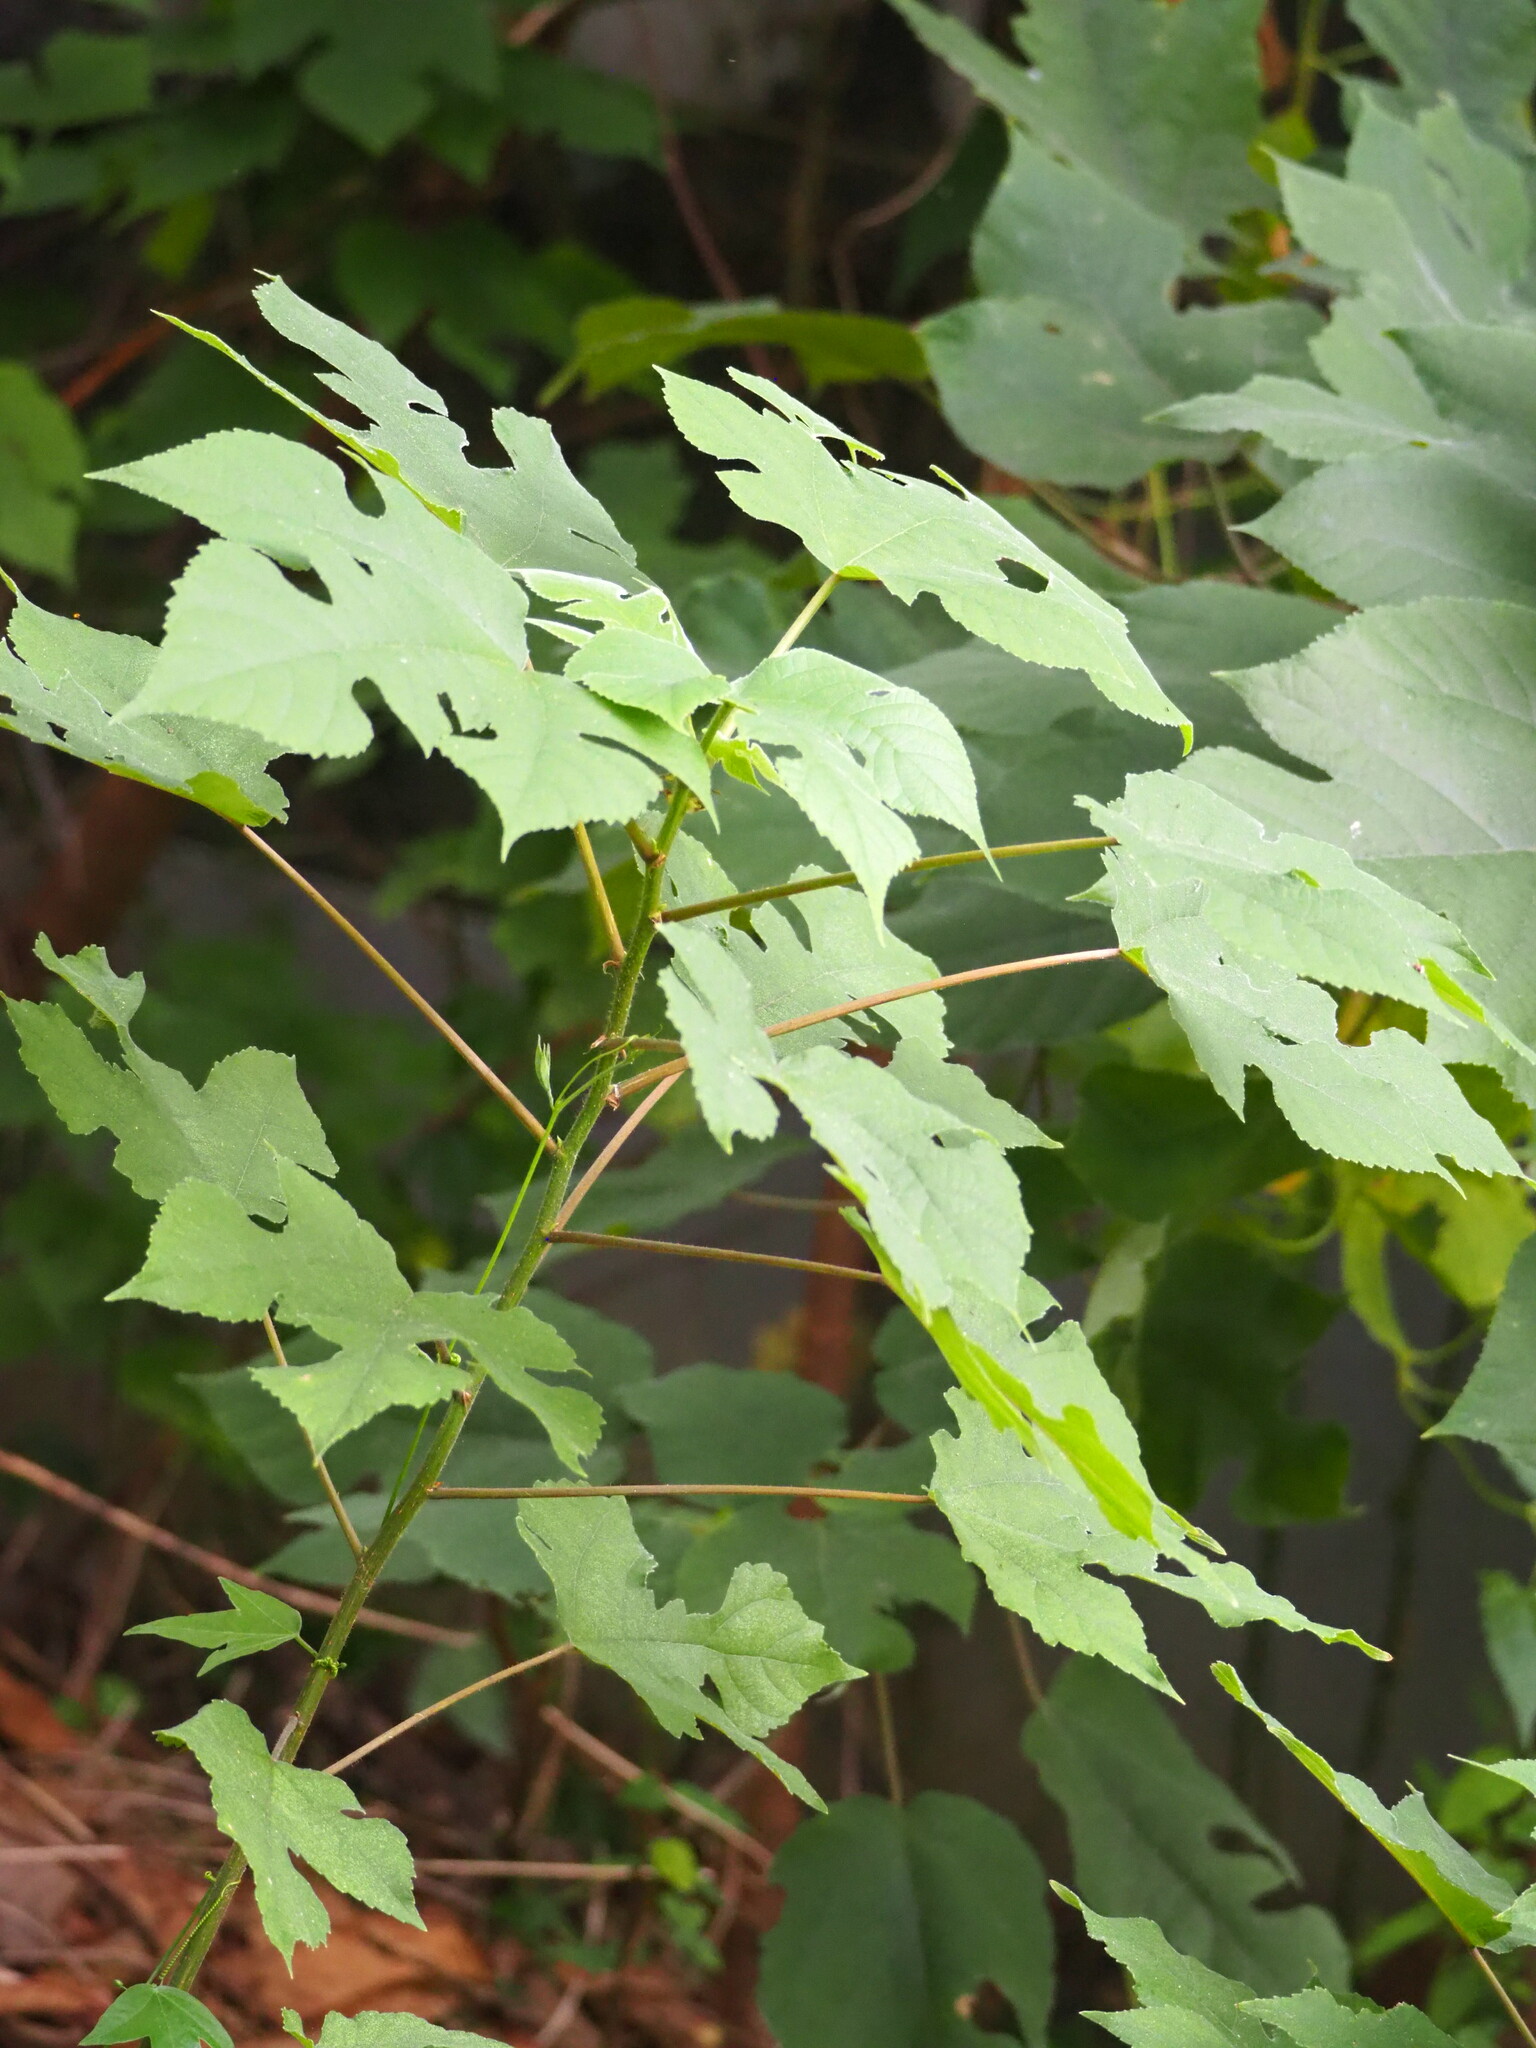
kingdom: Plantae
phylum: Tracheophyta
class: Magnoliopsida
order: Rosales
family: Moraceae
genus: Broussonetia
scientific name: Broussonetia papyrifera
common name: Paper mulberry
